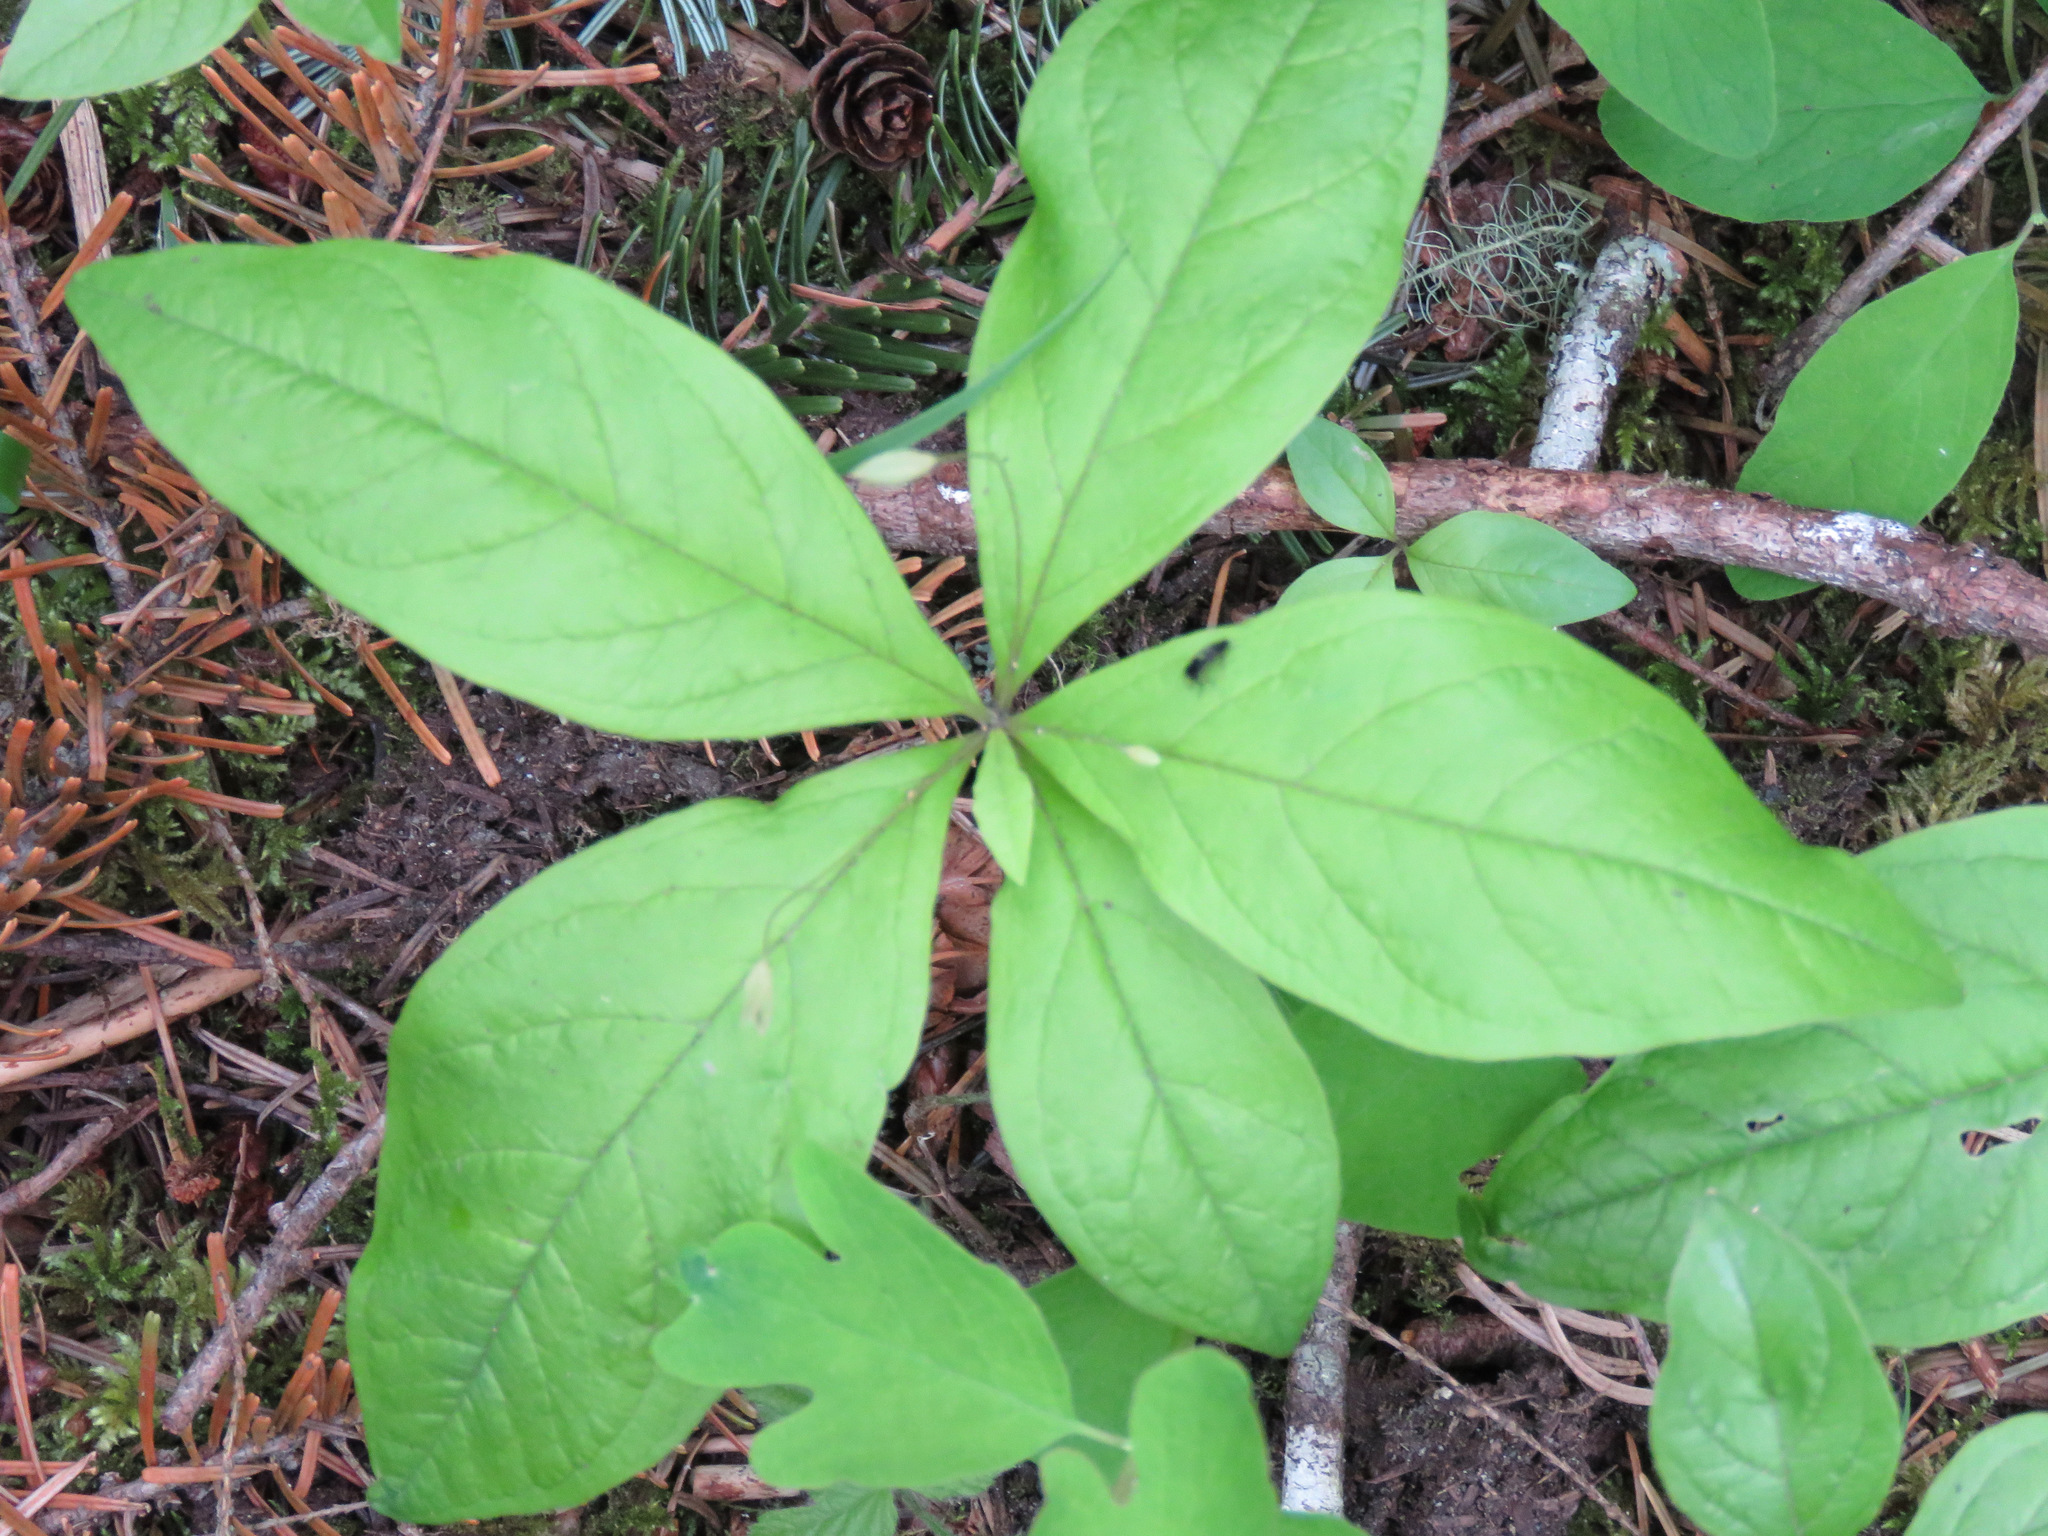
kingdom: Plantae
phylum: Tracheophyta
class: Magnoliopsida
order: Ericales
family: Primulaceae
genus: Lysimachia
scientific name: Lysimachia latifolia
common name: Pacific starflower
